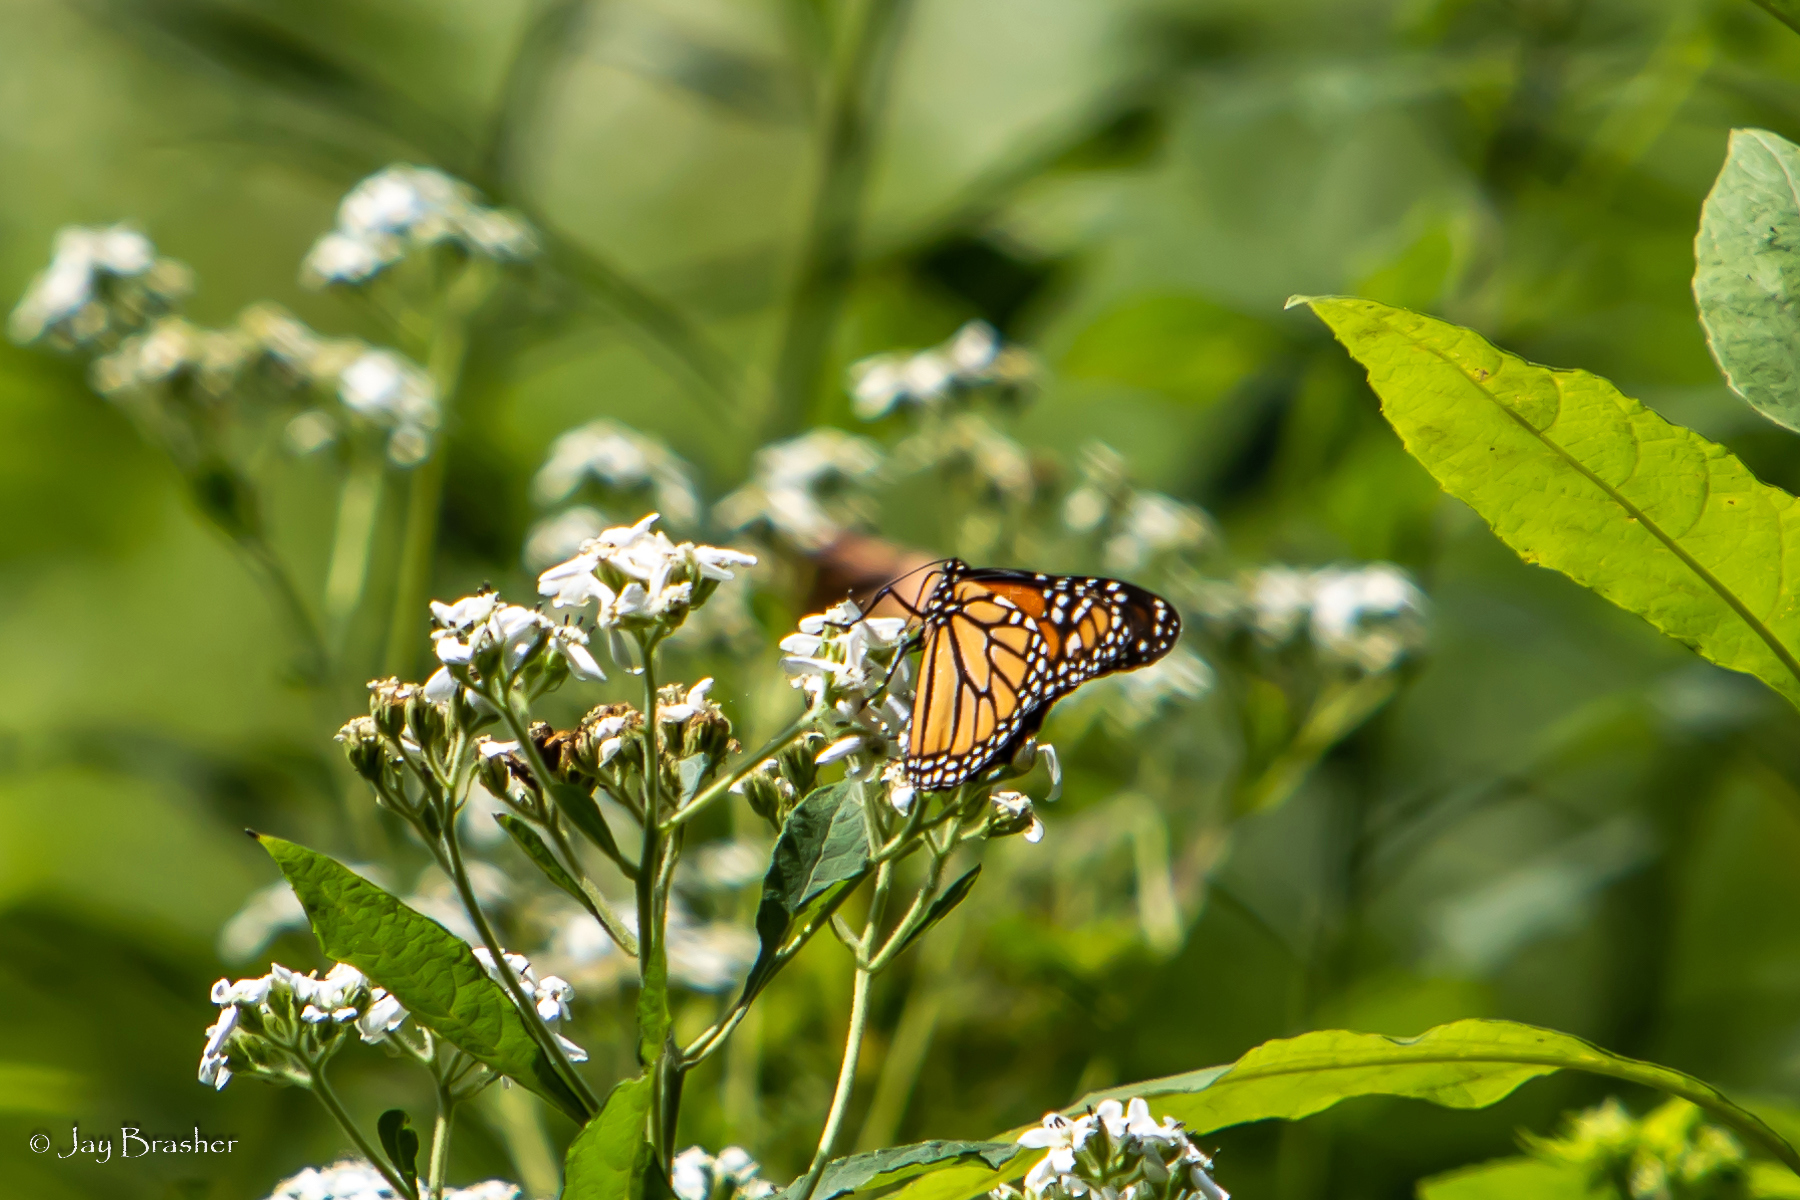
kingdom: Animalia
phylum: Arthropoda
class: Insecta
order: Lepidoptera
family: Nymphalidae
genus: Danaus
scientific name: Danaus plexippus
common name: Monarch
